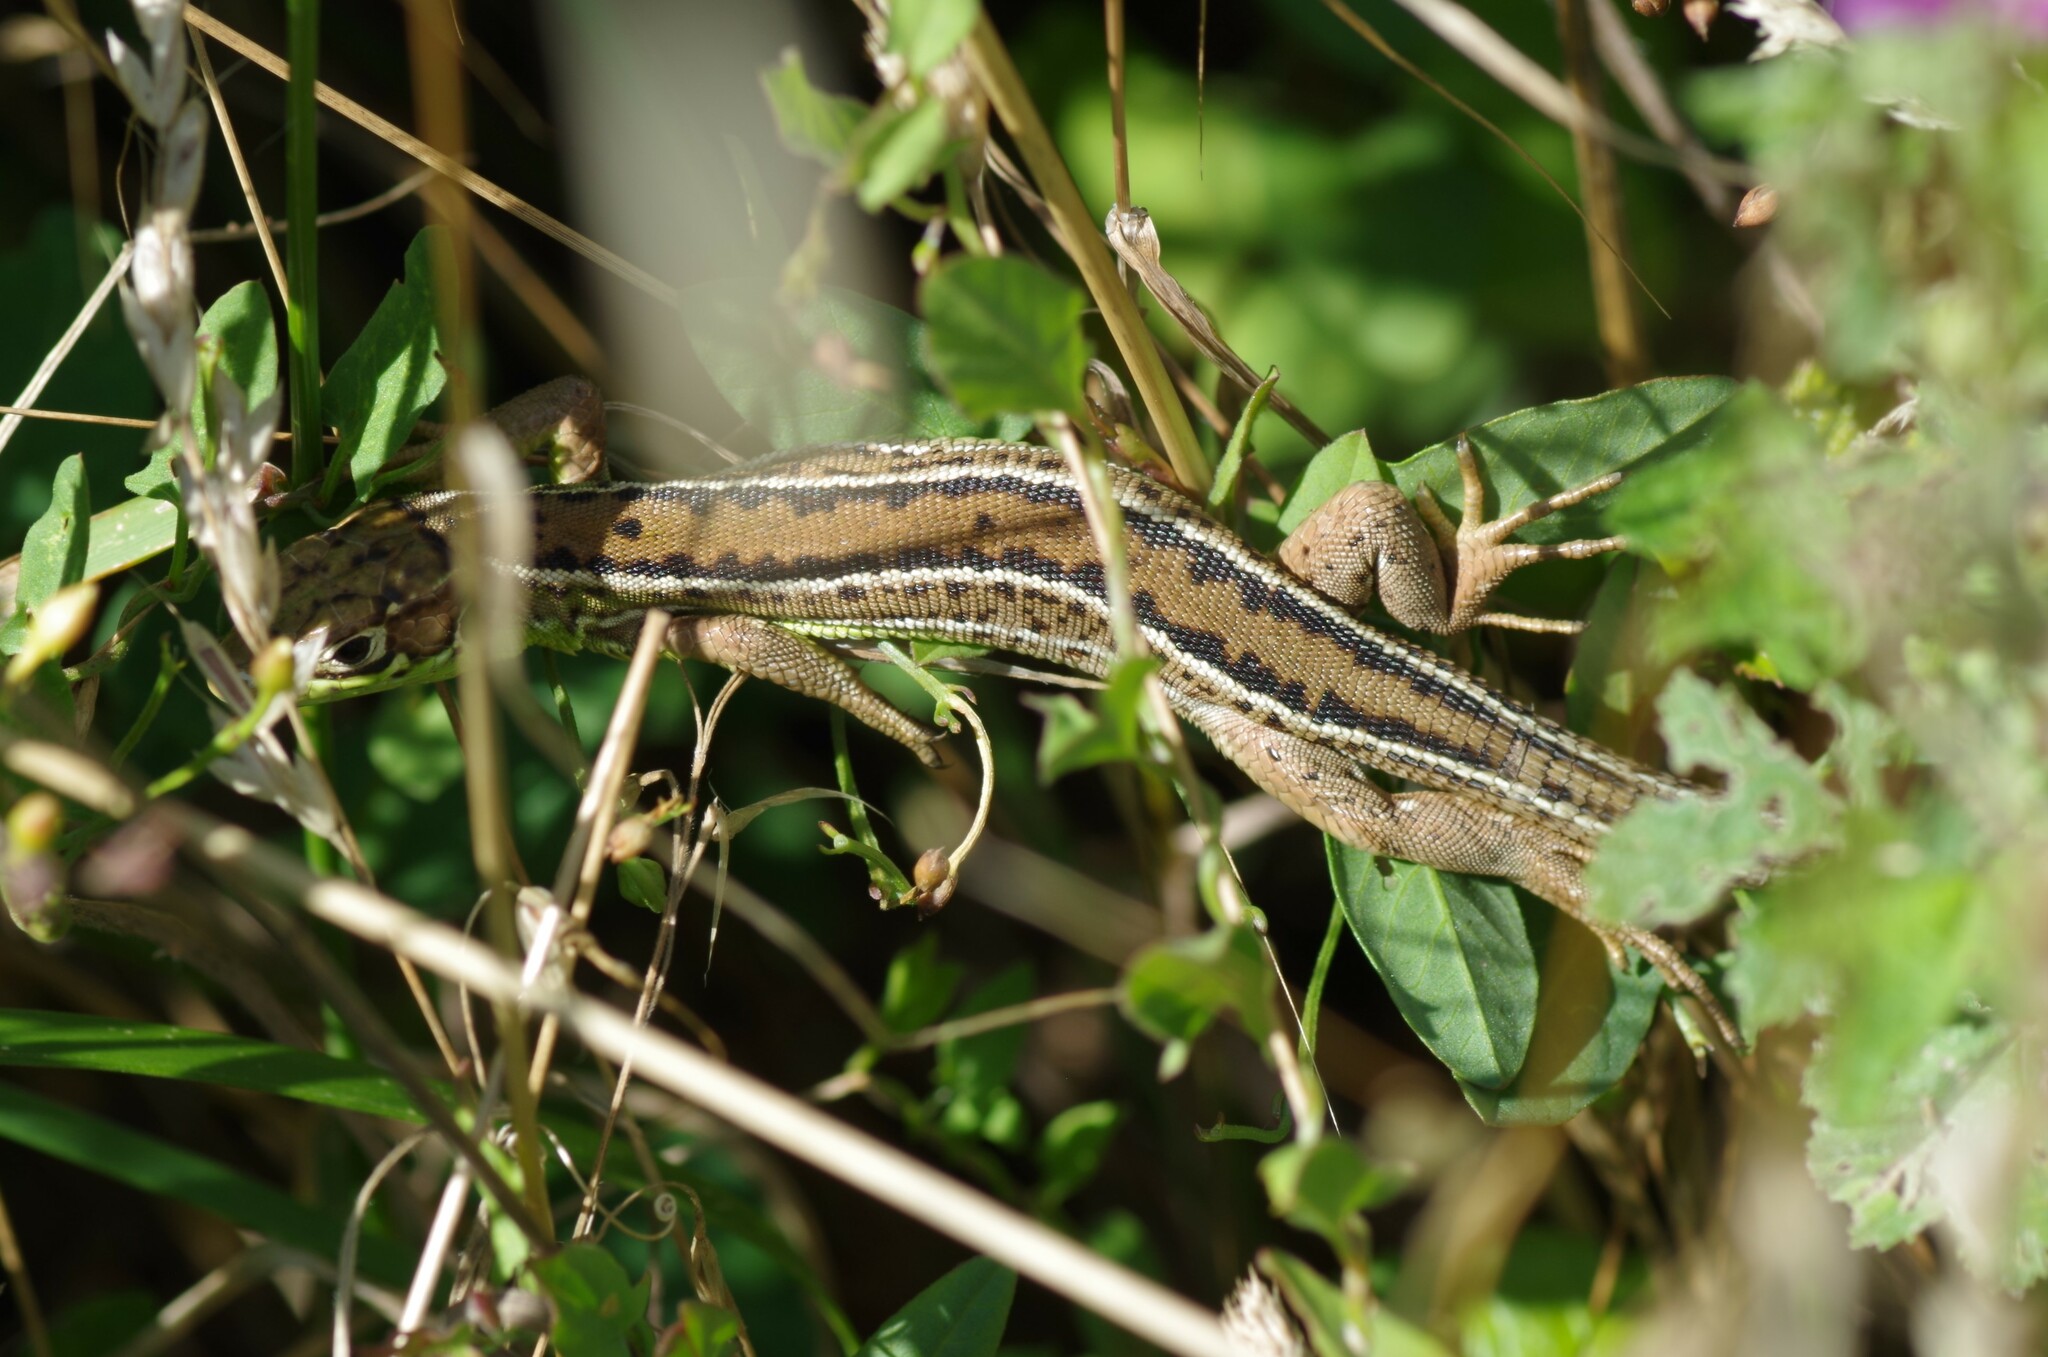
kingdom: Animalia
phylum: Chordata
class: Squamata
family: Lacertidae
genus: Lacerta
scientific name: Lacerta bilineata
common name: Western green lizard
